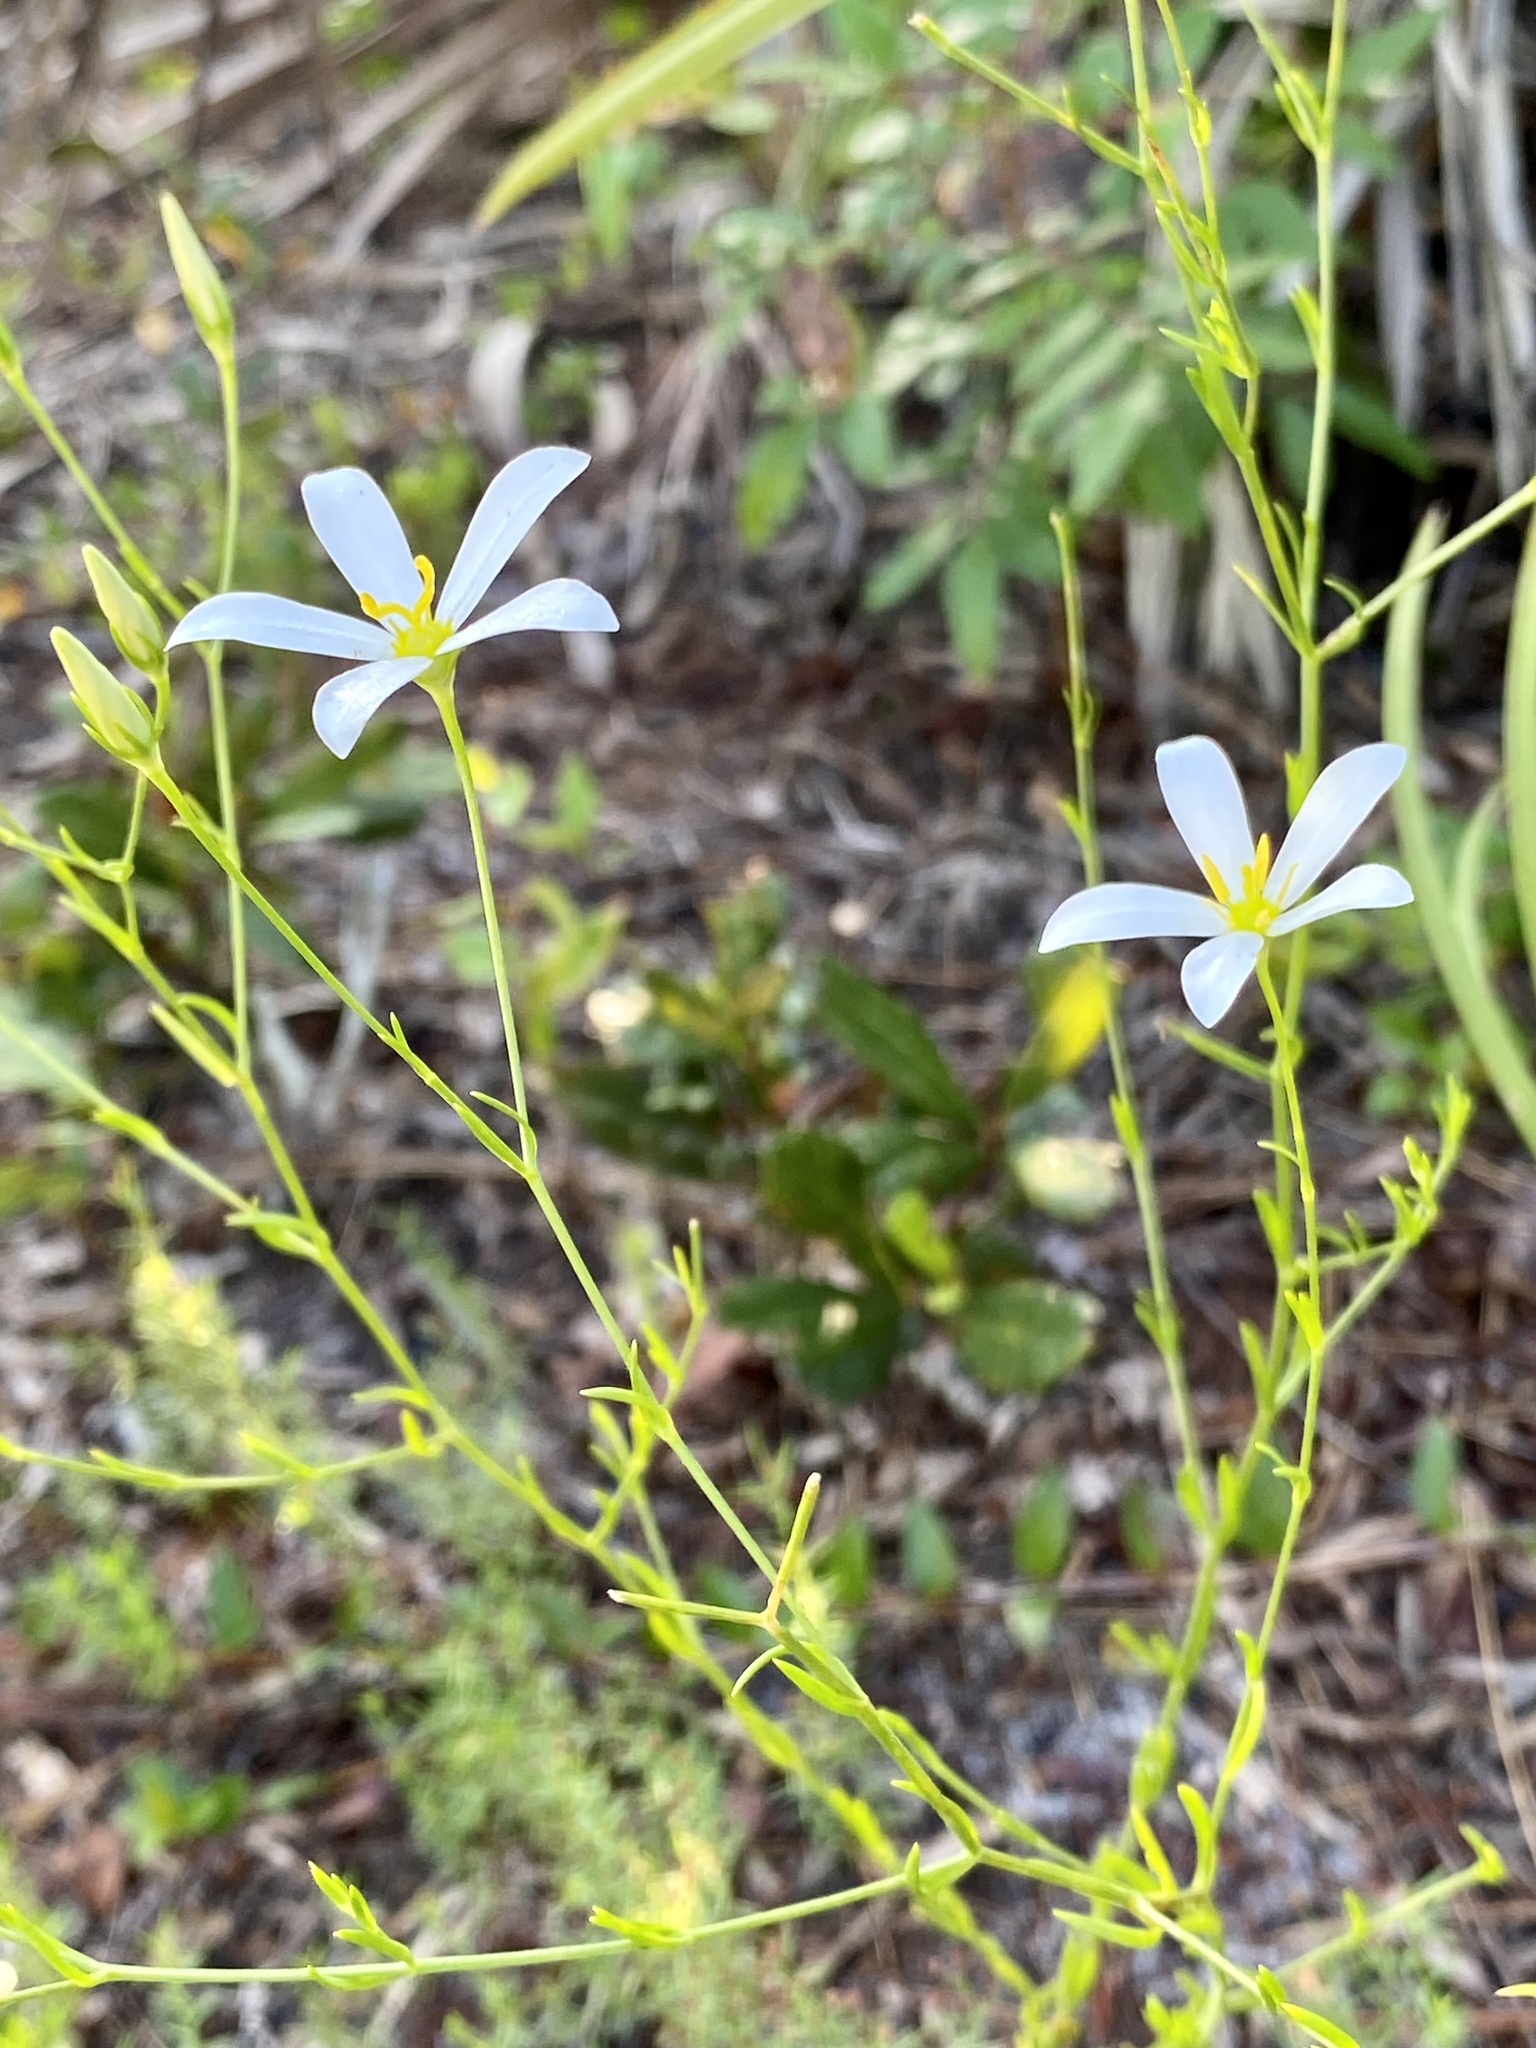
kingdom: Plantae
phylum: Tracheophyta
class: Magnoliopsida
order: Gentianales
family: Gentianaceae
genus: Sabatia
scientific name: Sabatia brevifolia
